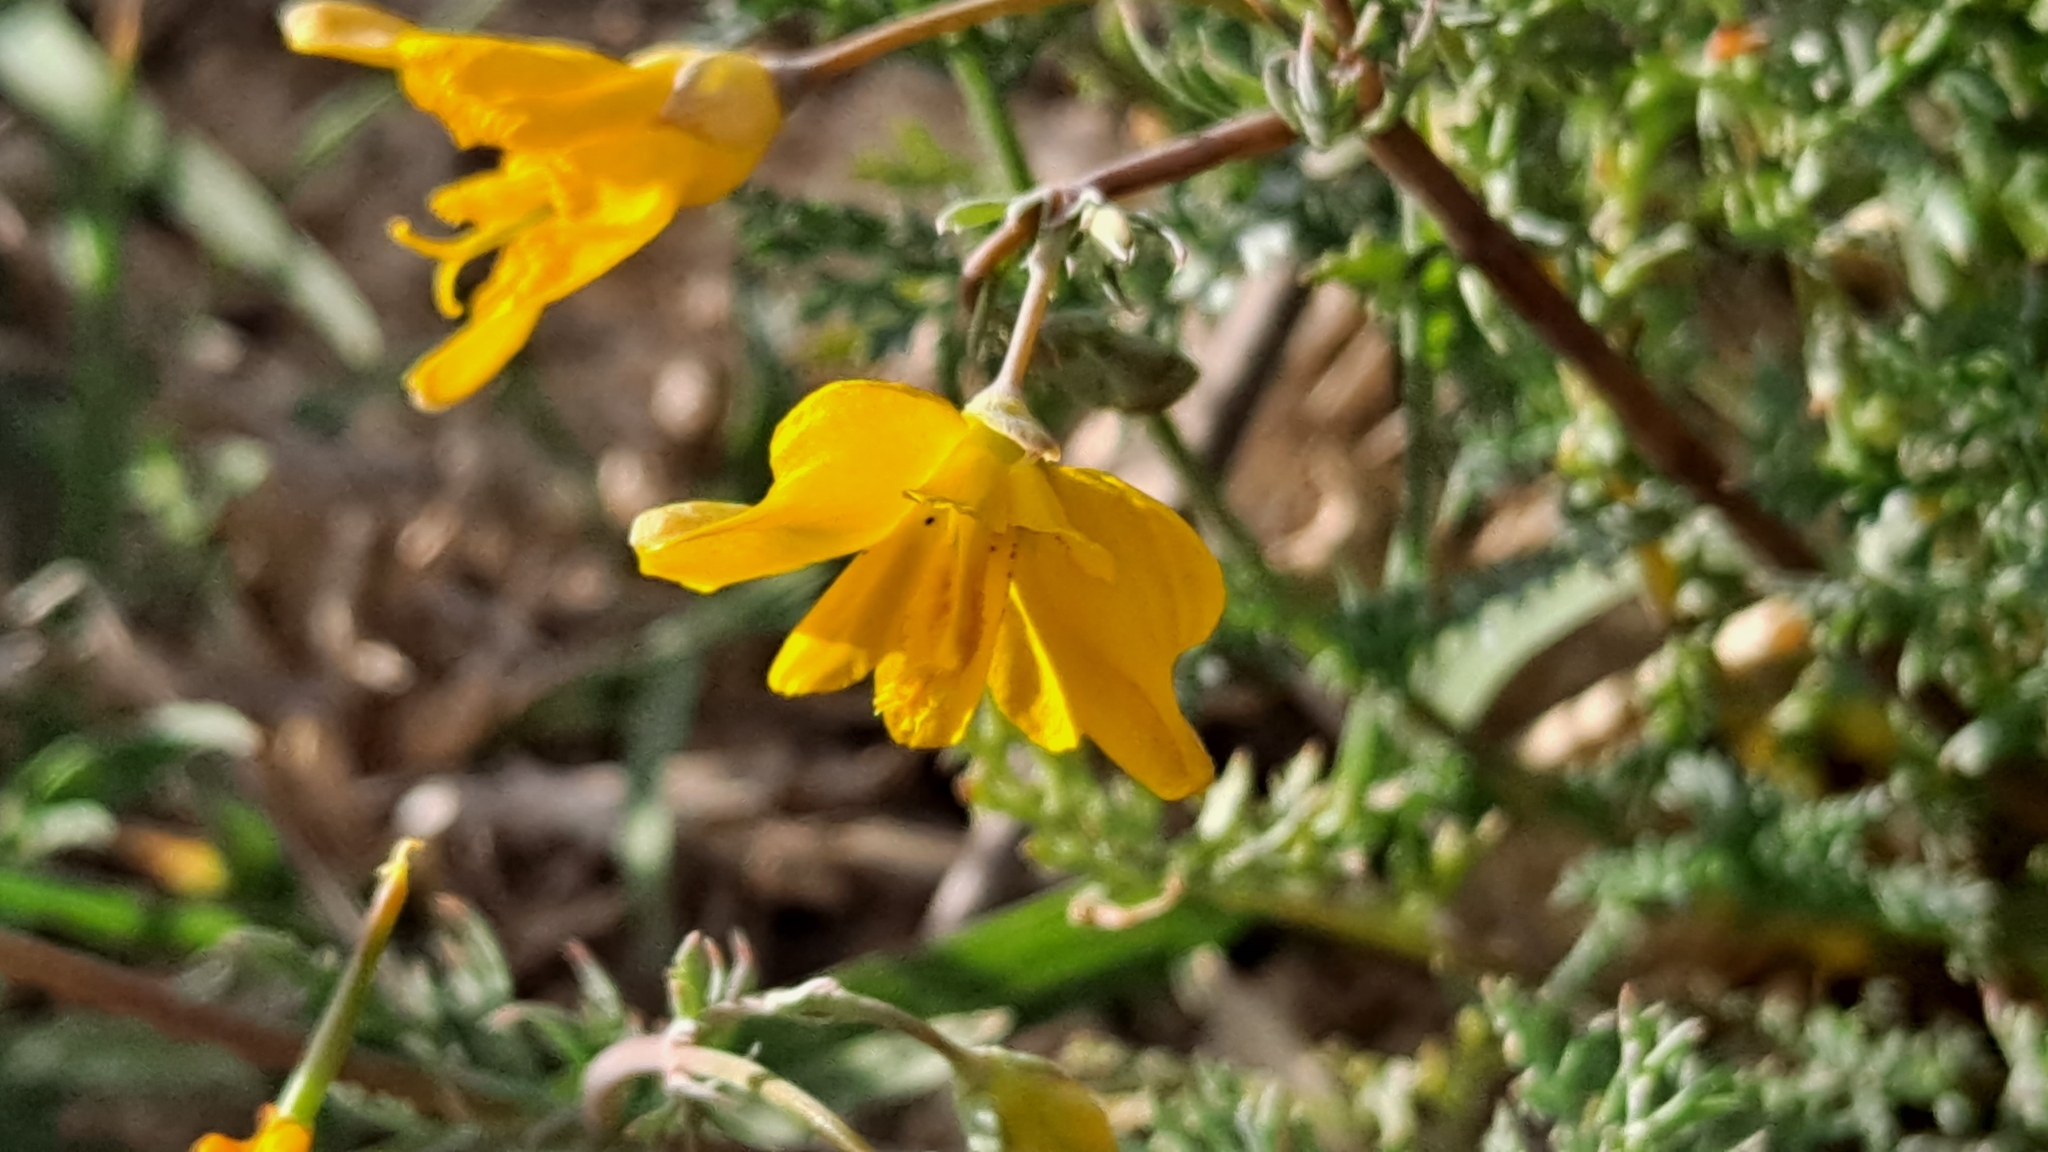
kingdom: Plantae
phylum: Tracheophyta
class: Magnoliopsida
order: Ranunculales
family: Papaveraceae
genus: Hypecoum
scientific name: Hypecoum imberbe
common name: Sicklefruit hypecoum
